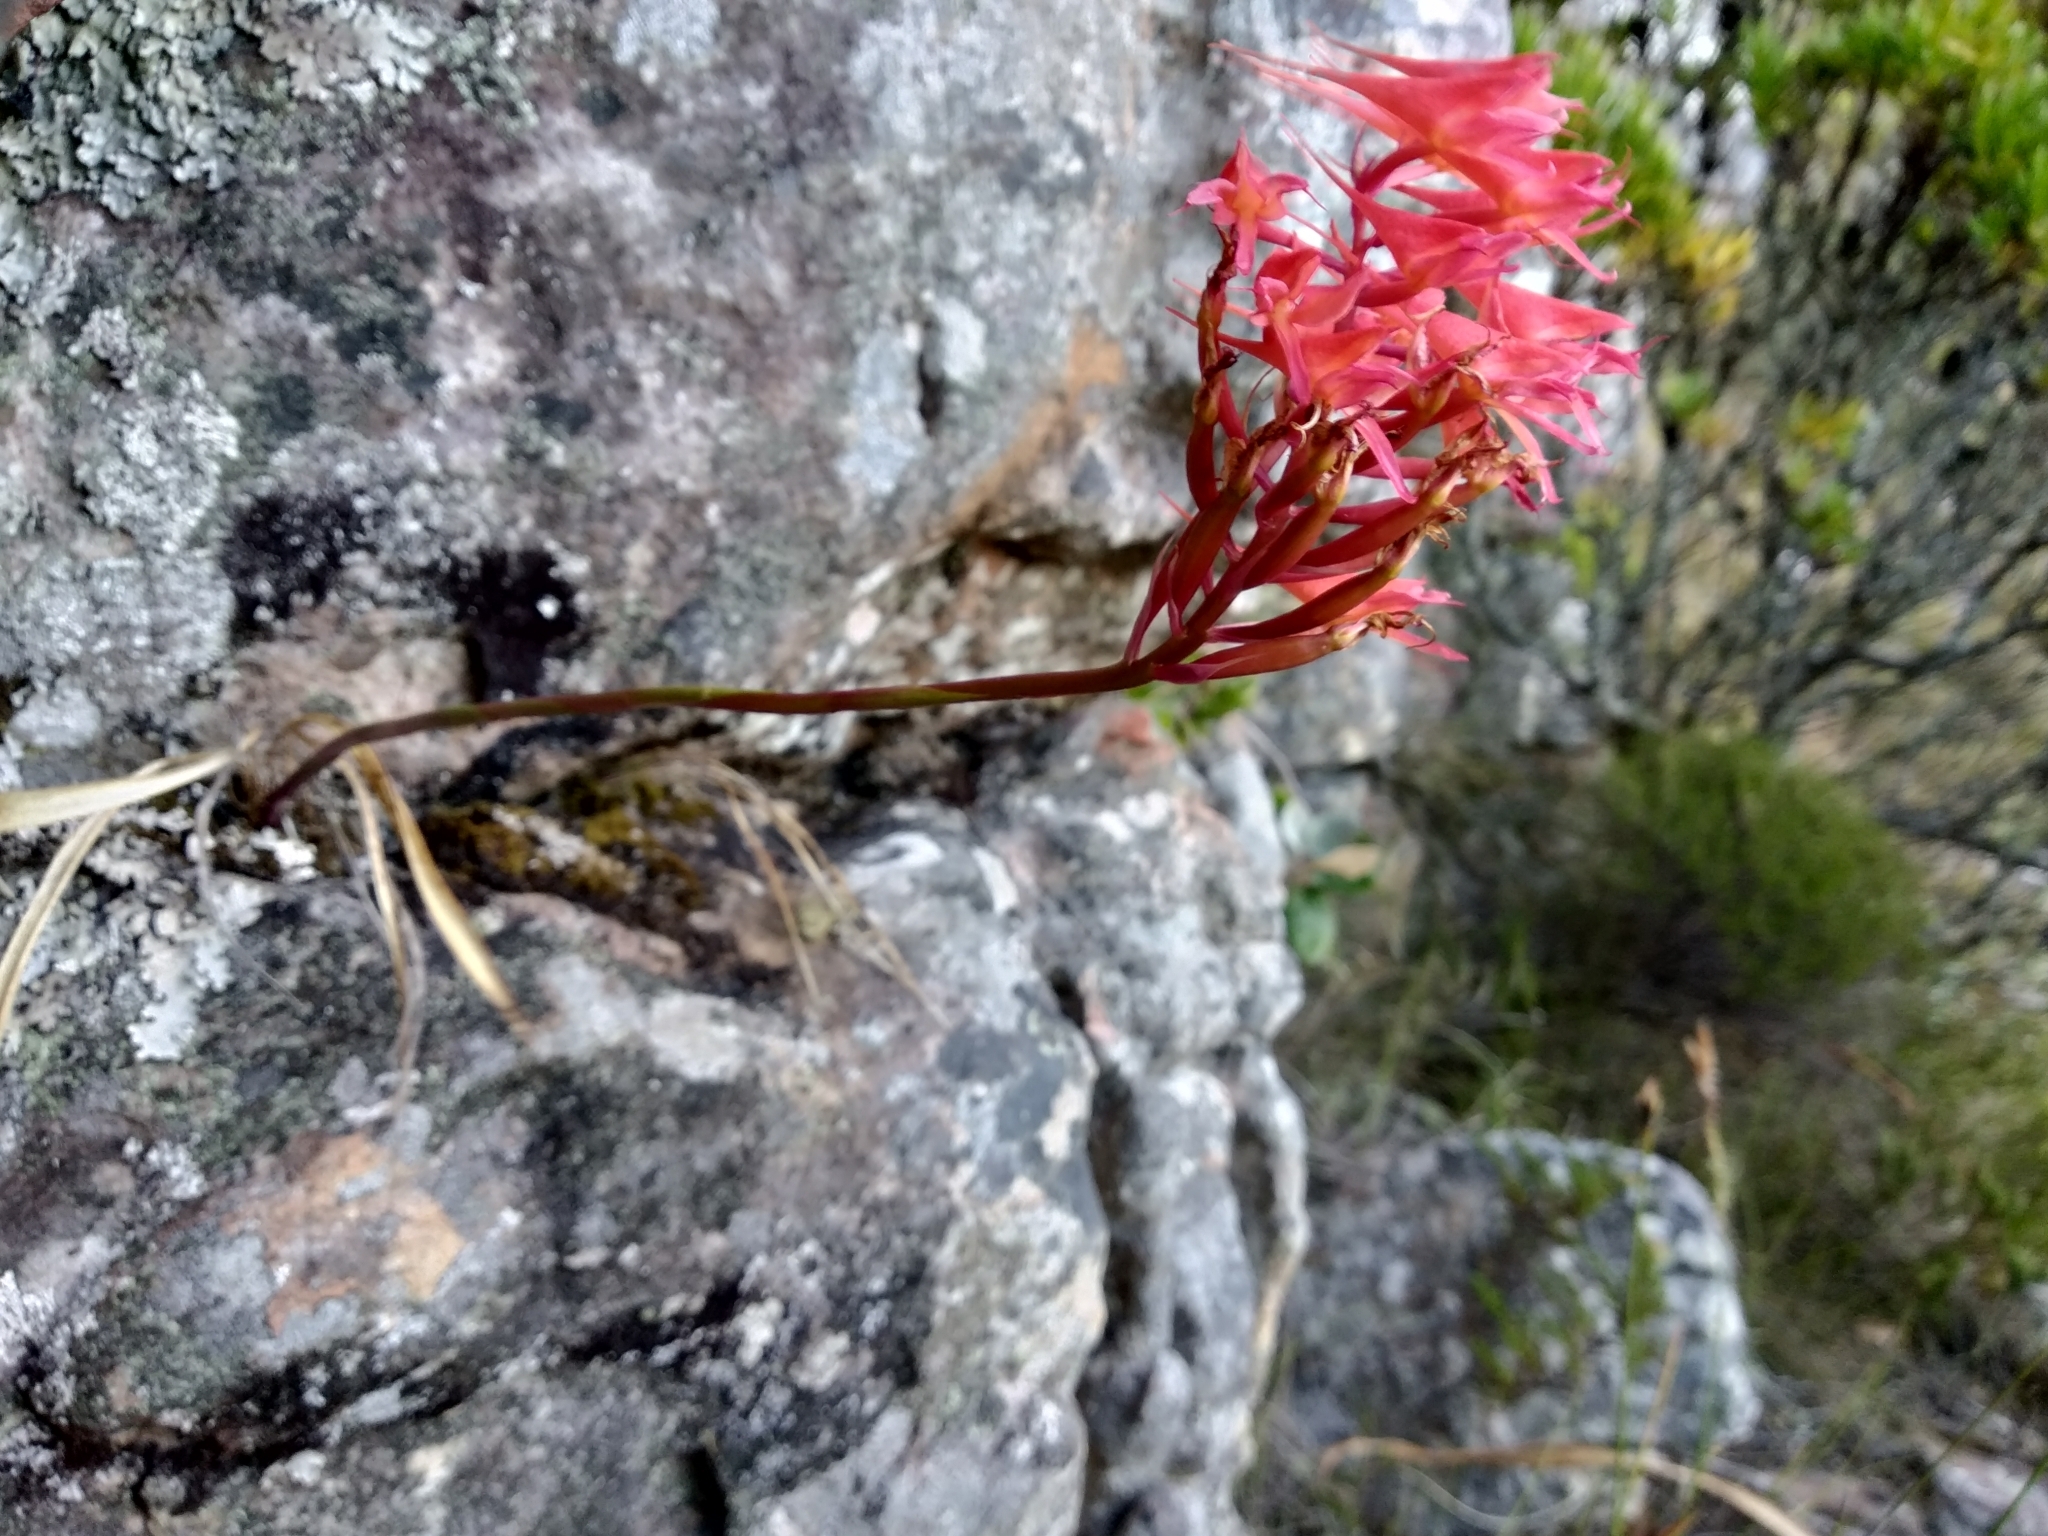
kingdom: Plantae
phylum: Tracheophyta
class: Liliopsida
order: Asparagales
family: Orchidaceae
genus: Disa
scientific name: Disa ferruginea
